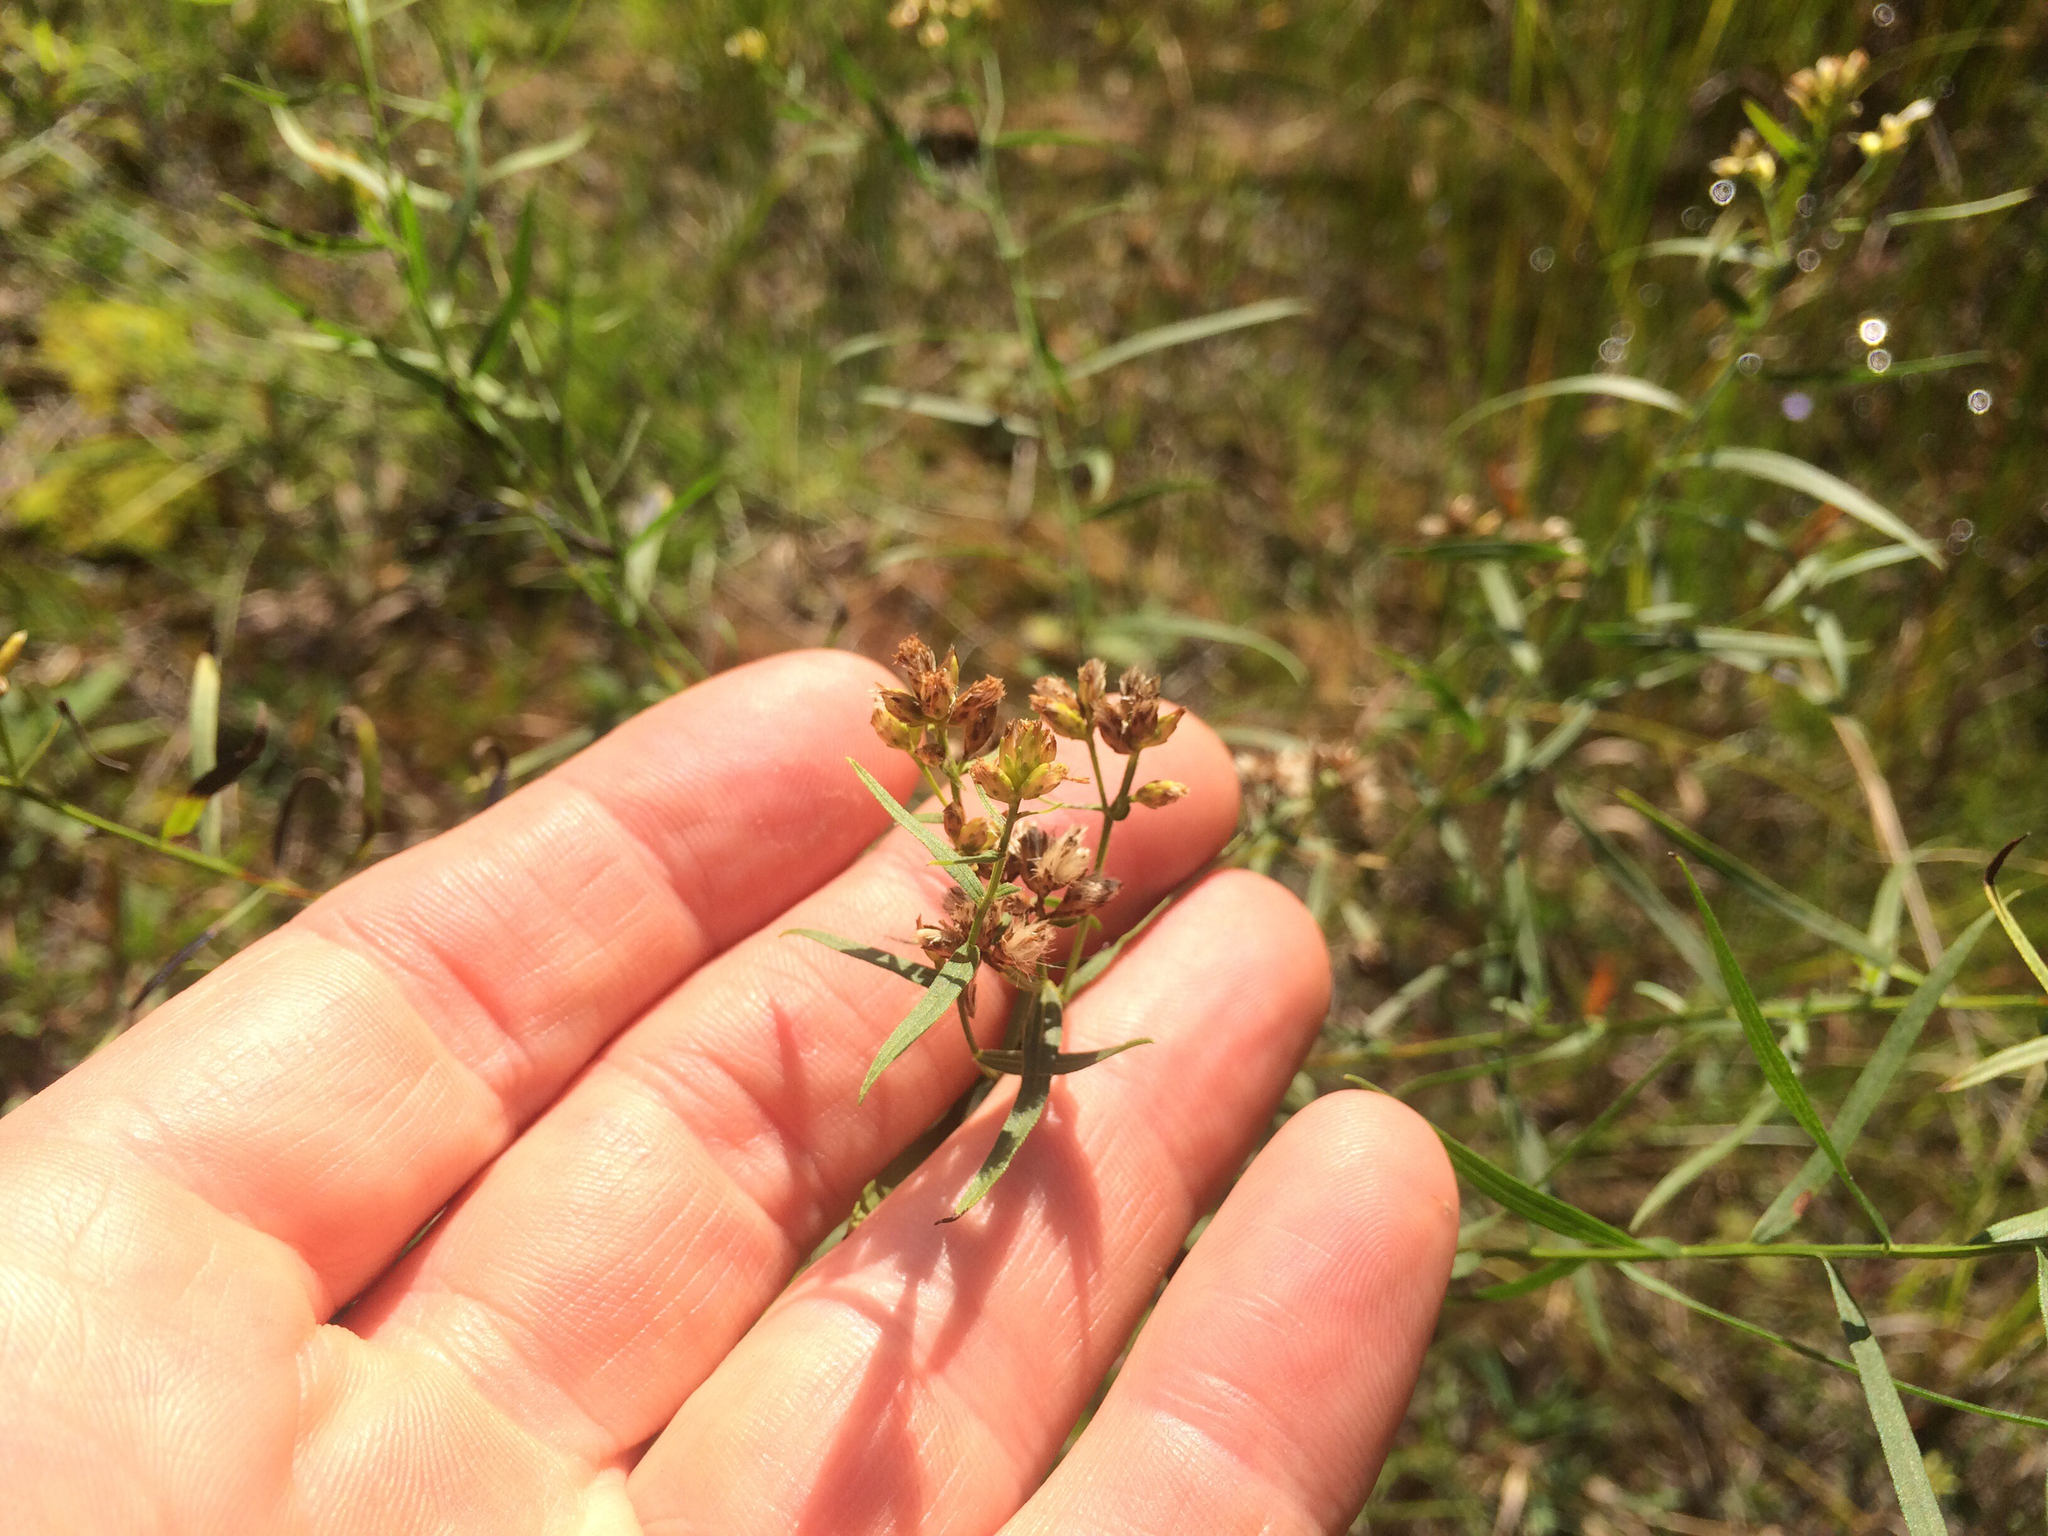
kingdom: Plantae
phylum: Tracheophyta
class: Magnoliopsida
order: Asterales
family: Asteraceae
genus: Euthamia
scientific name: Euthamia graminifolia
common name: Common goldentop
